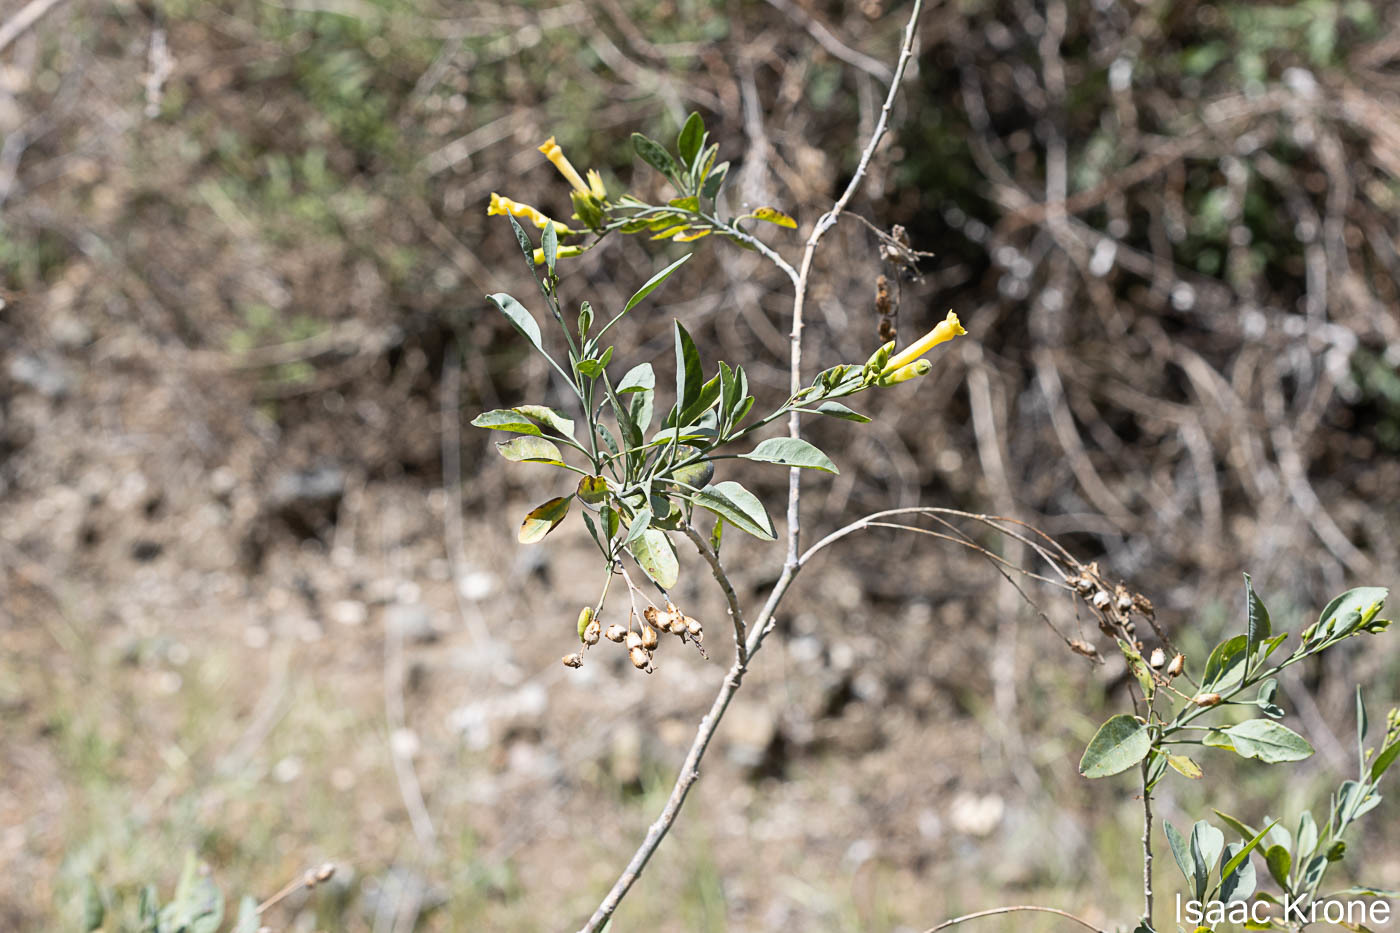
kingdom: Plantae
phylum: Tracheophyta
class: Magnoliopsida
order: Solanales
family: Solanaceae
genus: Nicotiana
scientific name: Nicotiana glauca
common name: Tree tobacco
